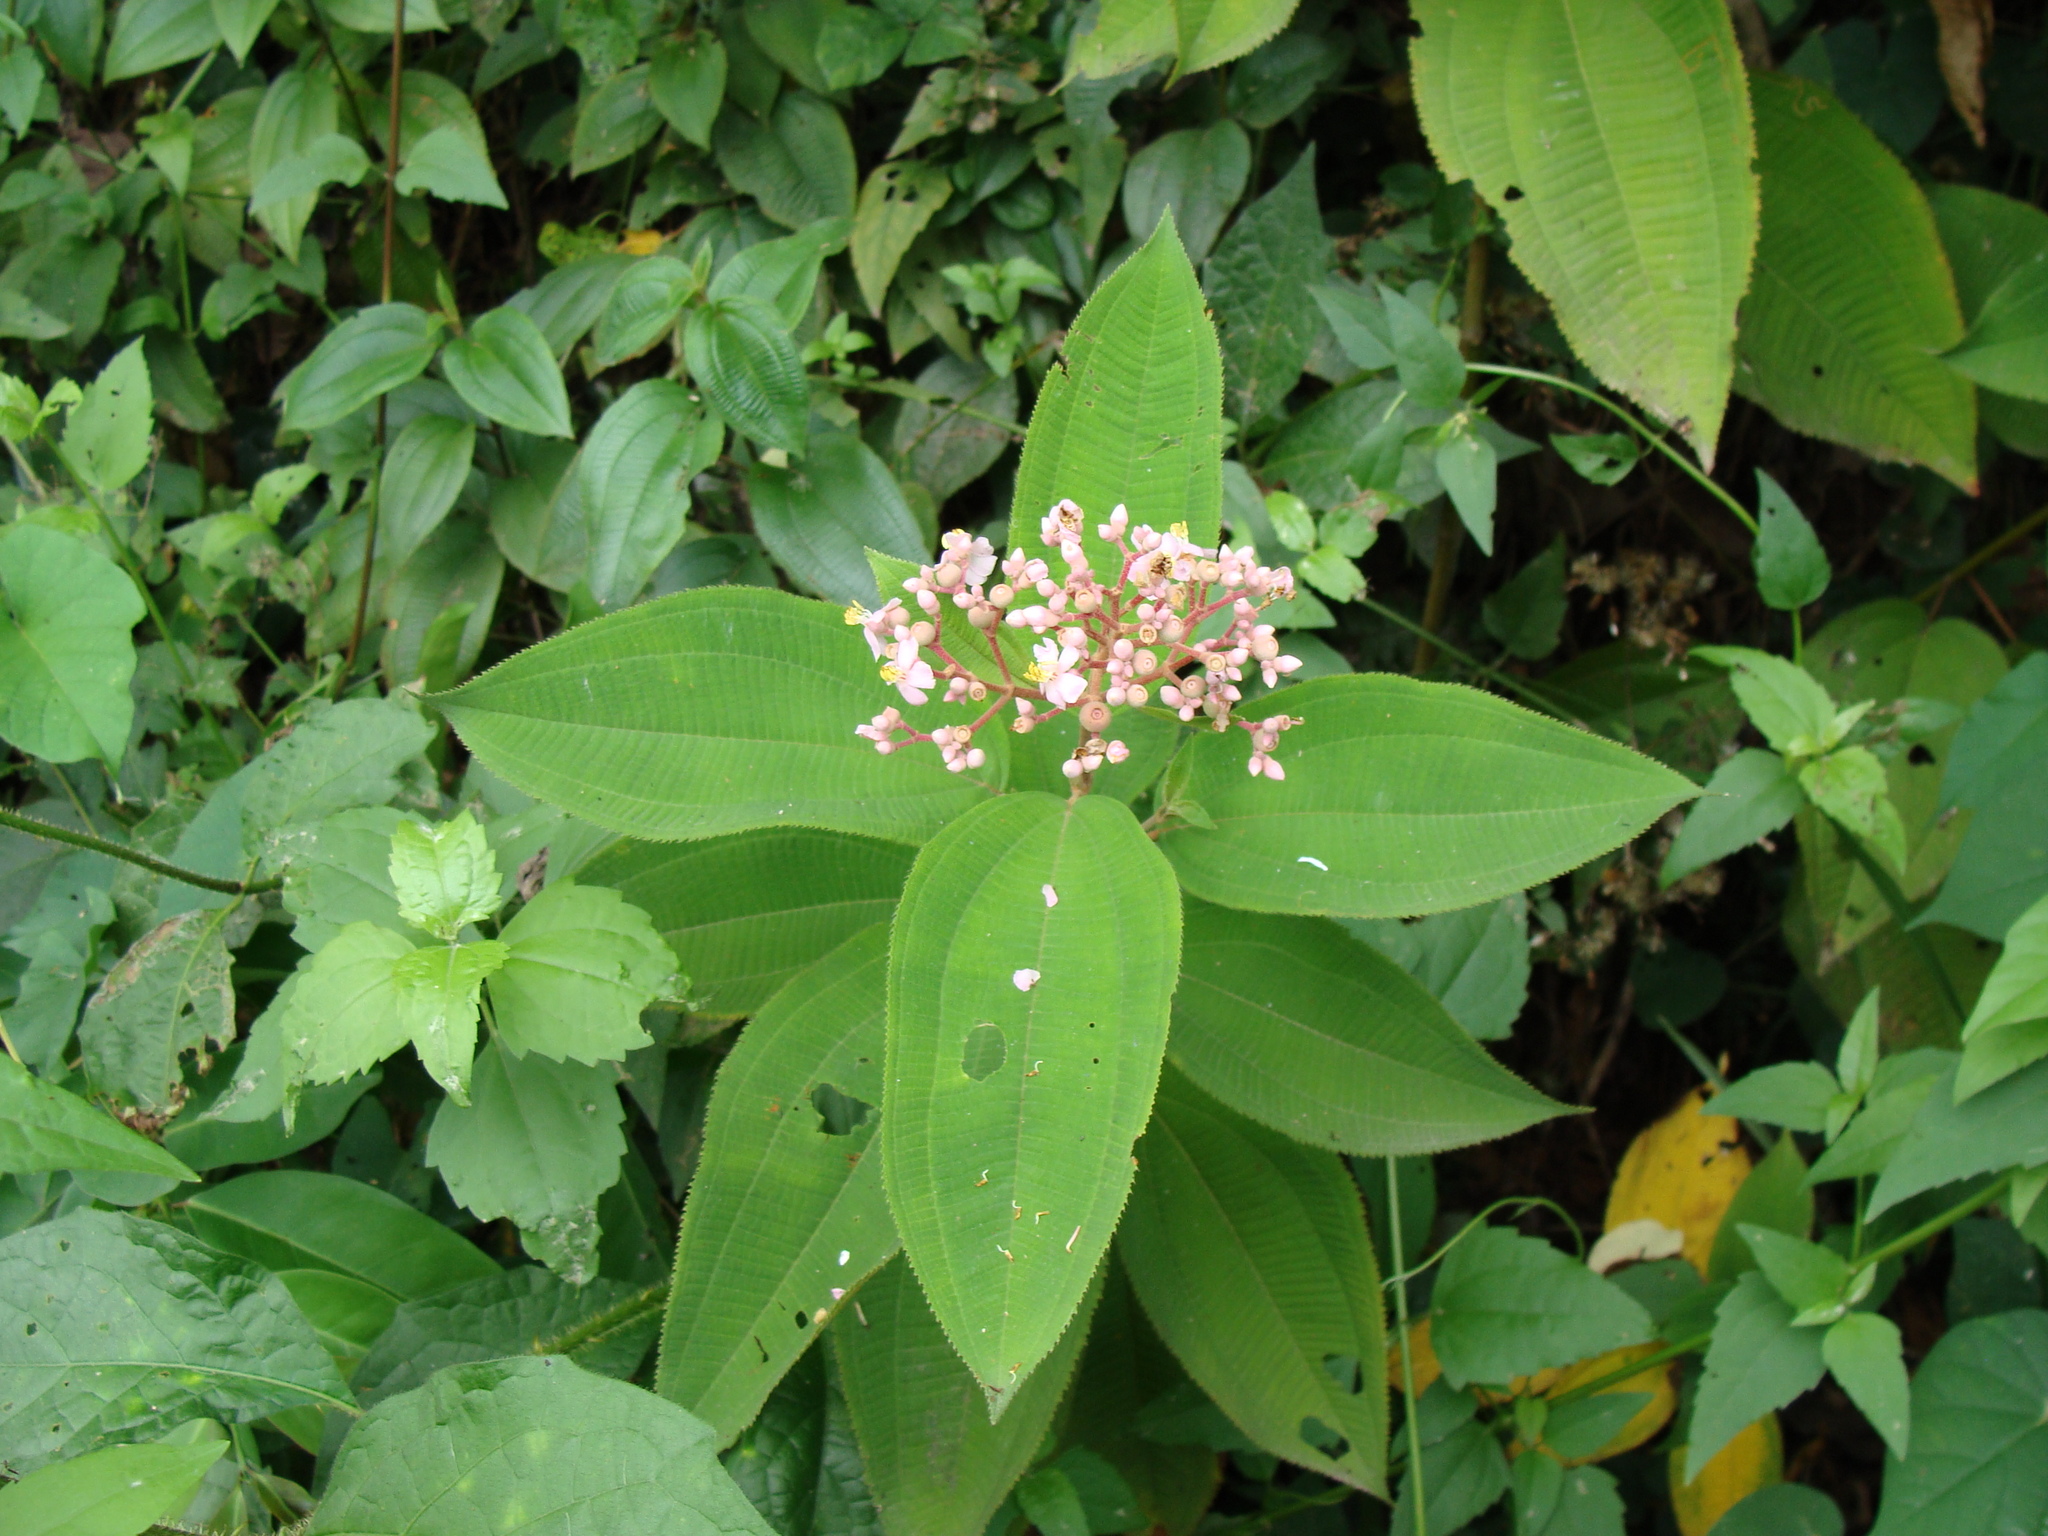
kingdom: Plantae
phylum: Tracheophyta
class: Magnoliopsida
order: Myrtales
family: Melastomataceae
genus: Miconia
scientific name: Miconia xalapensis
